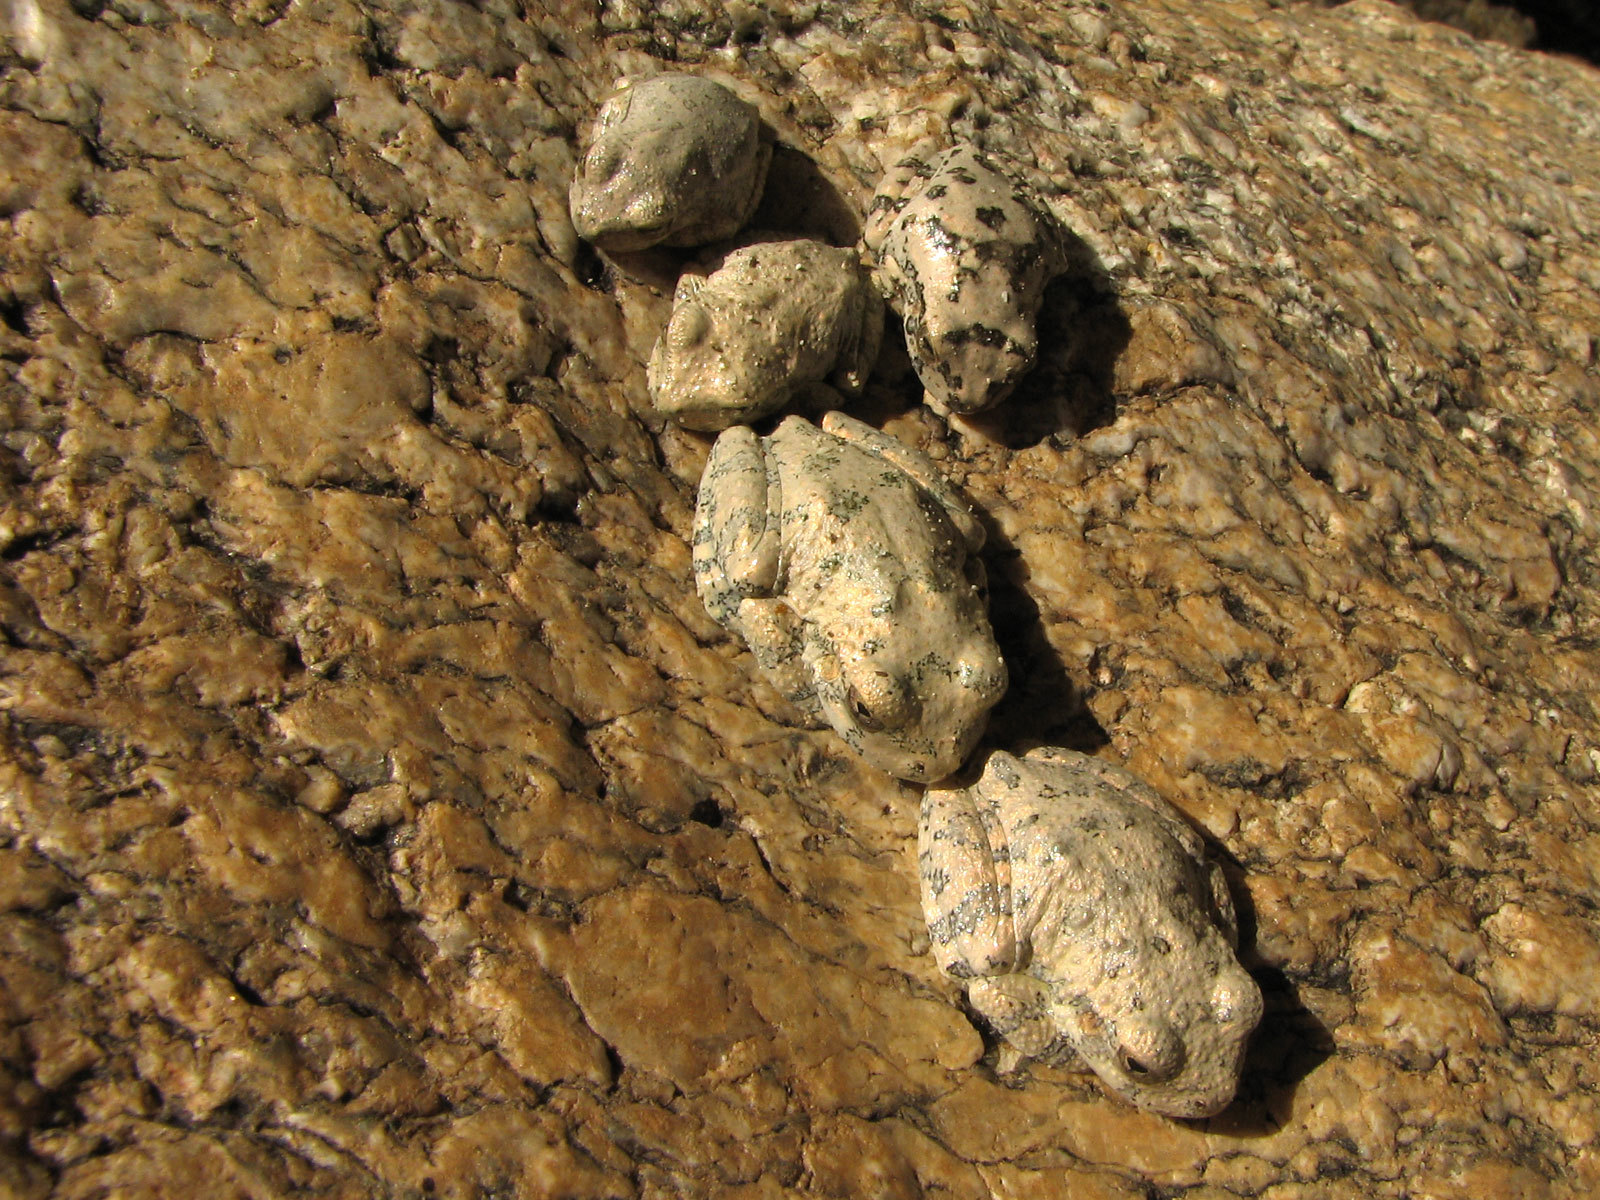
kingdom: Animalia
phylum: Chordata
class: Amphibia
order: Anura
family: Hylidae
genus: Dryophytes
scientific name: Dryophytes arenicolor
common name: Canyon treefrog
